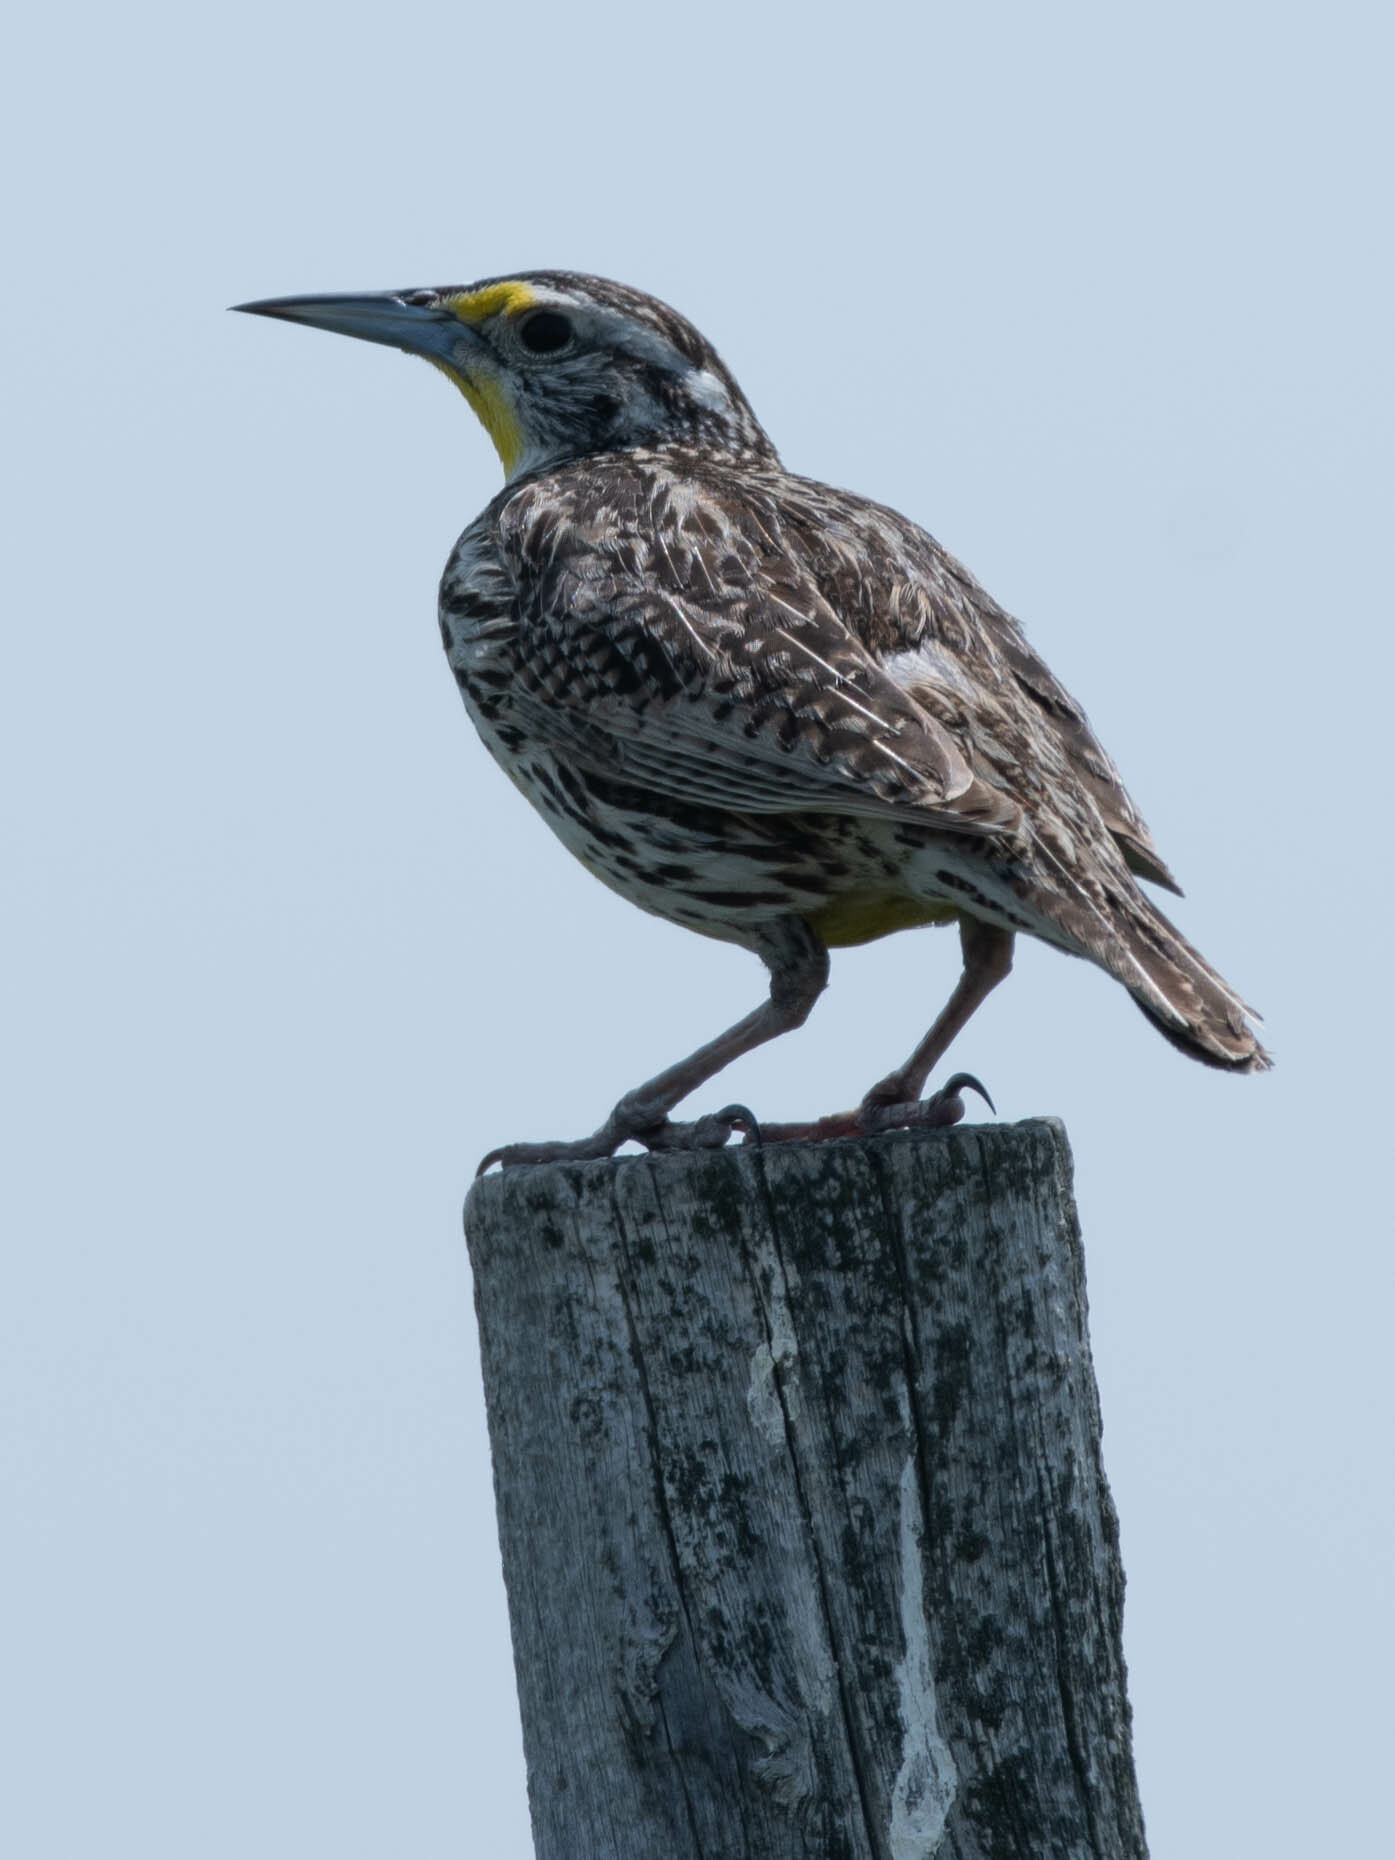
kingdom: Animalia
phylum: Chordata
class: Aves
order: Passeriformes
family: Icteridae
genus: Sturnella
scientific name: Sturnella neglecta
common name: Western meadowlark
